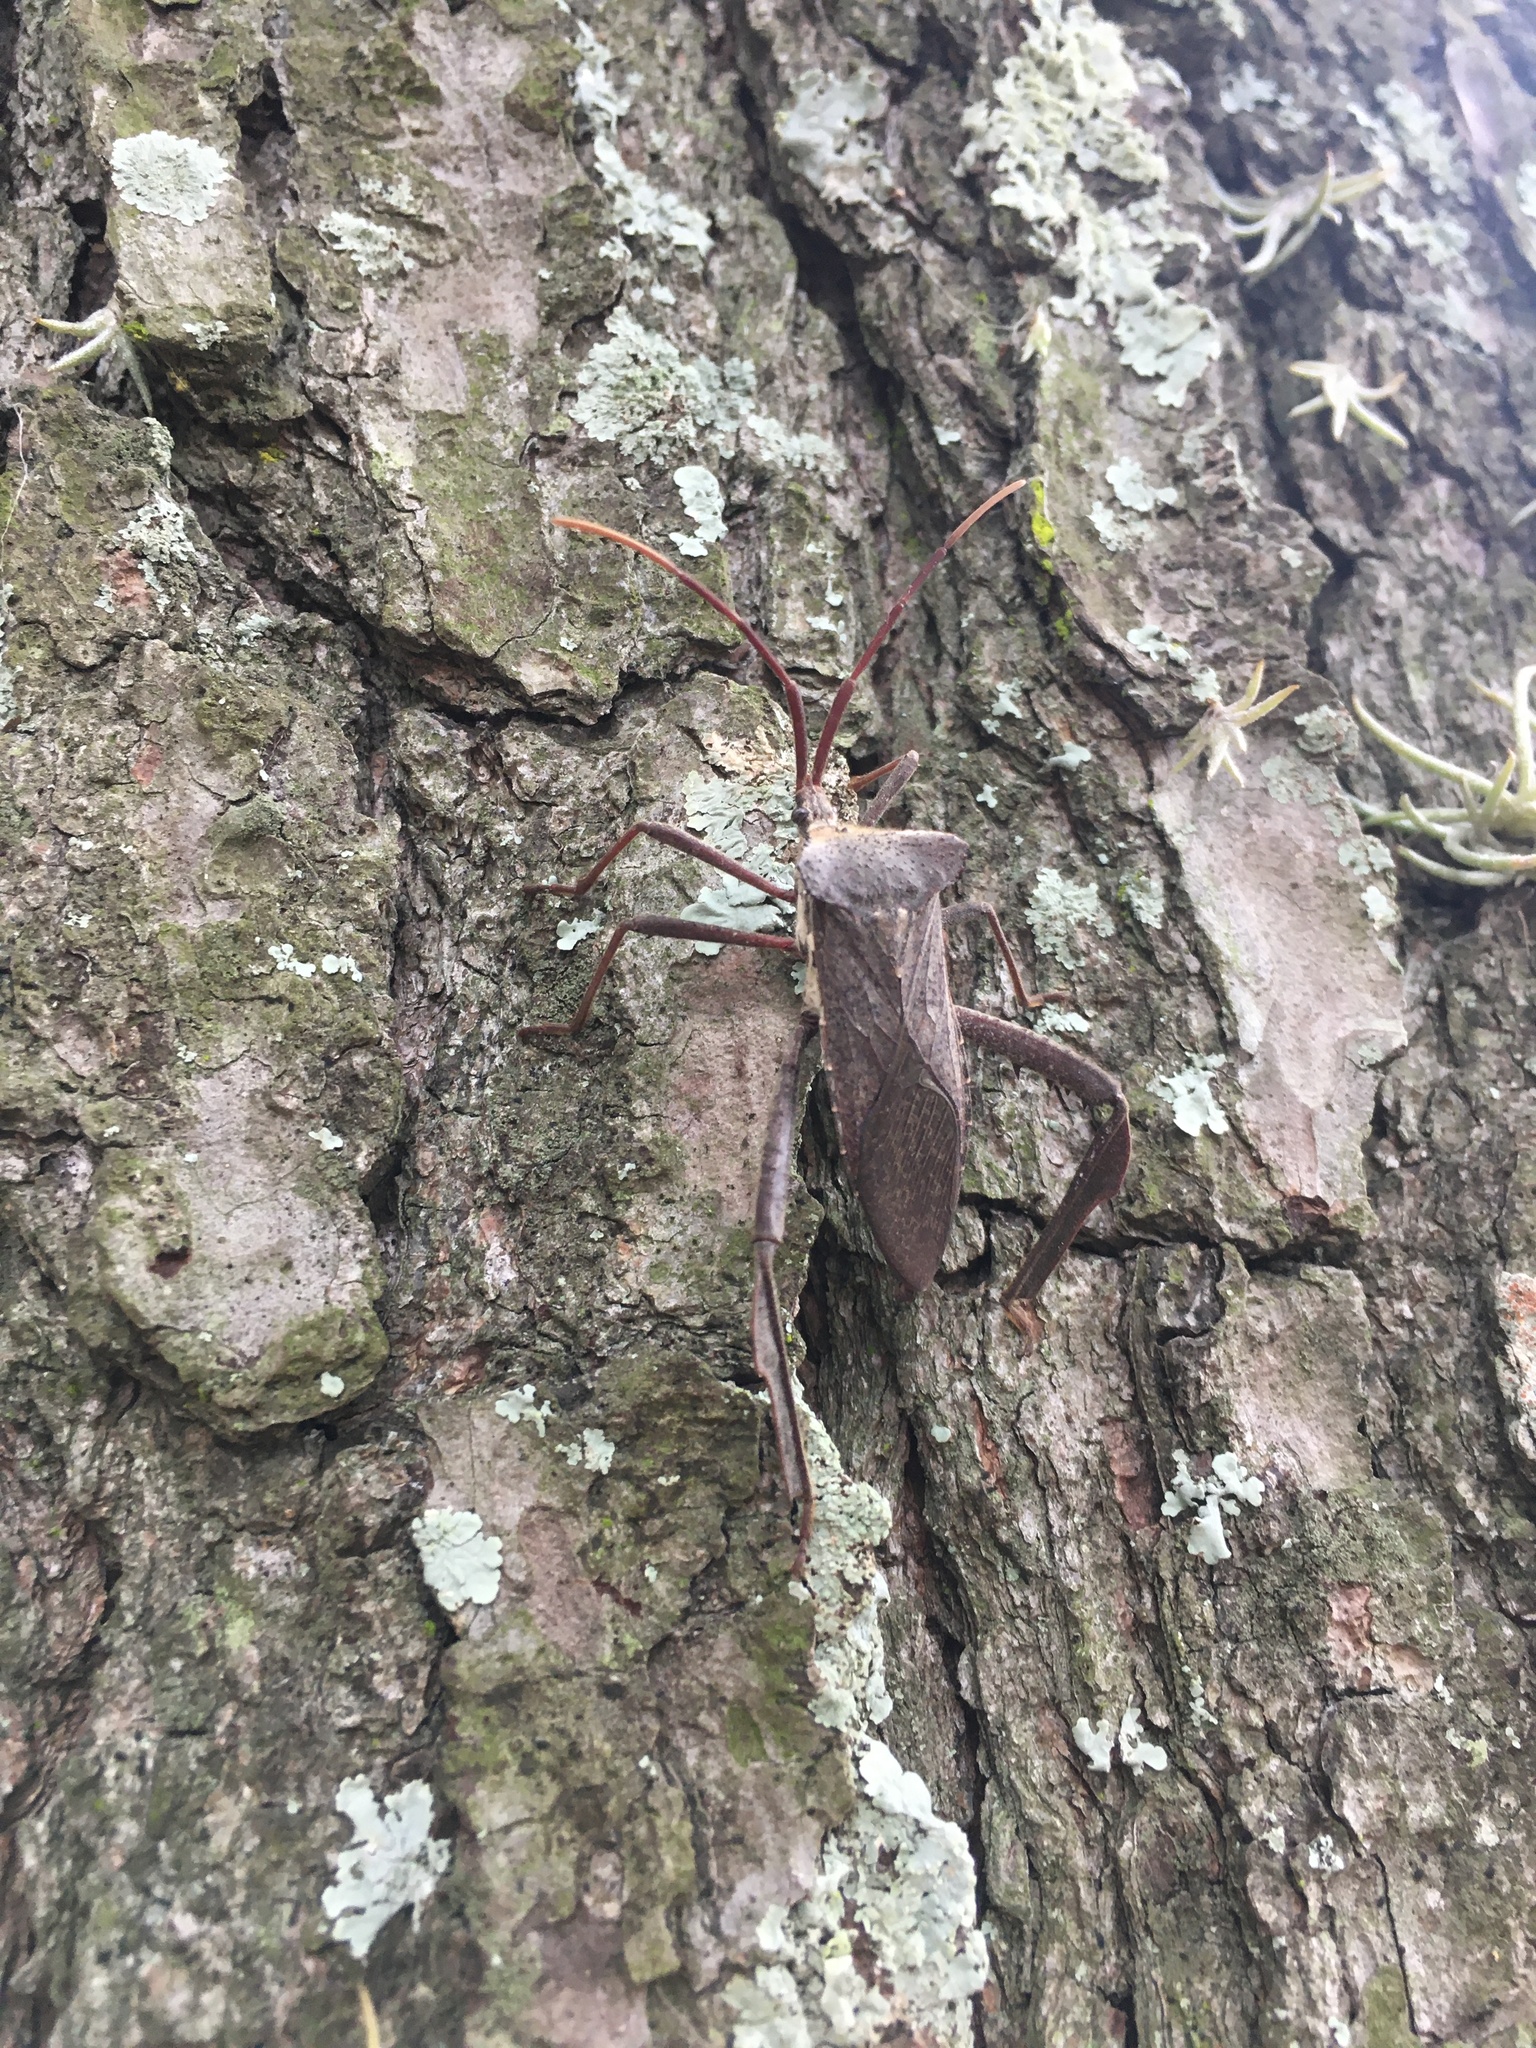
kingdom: Animalia
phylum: Arthropoda
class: Insecta
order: Hemiptera
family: Coreidae
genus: Acanthocephala
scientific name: Acanthocephala declivis
